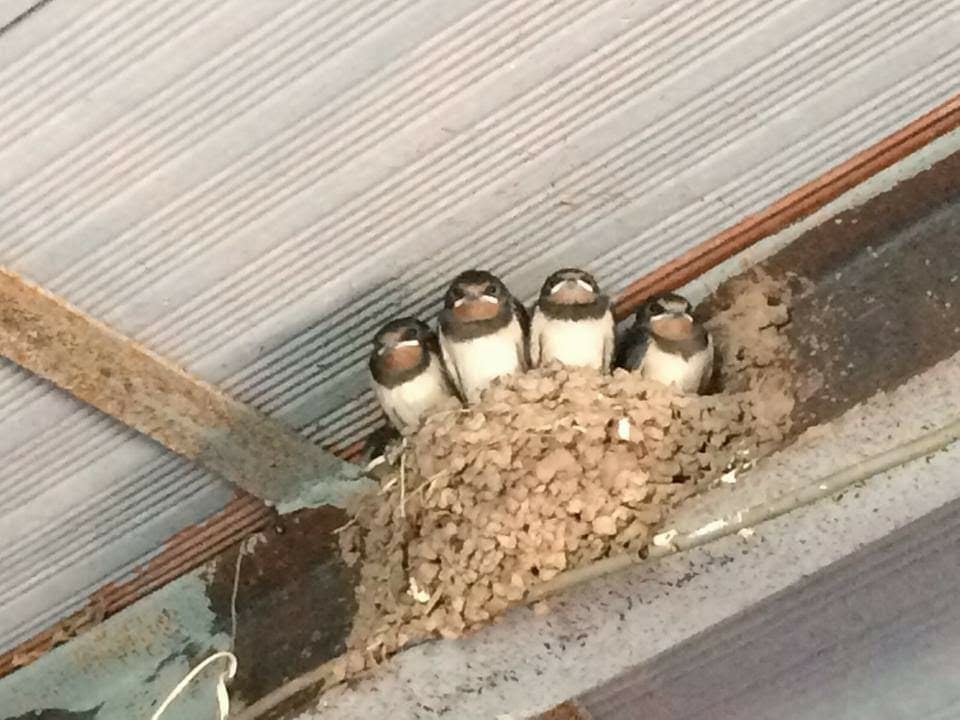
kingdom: Animalia
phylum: Chordata
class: Aves
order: Passeriformes
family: Hirundinidae
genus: Hirundo
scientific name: Hirundo rustica
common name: Barn swallow
